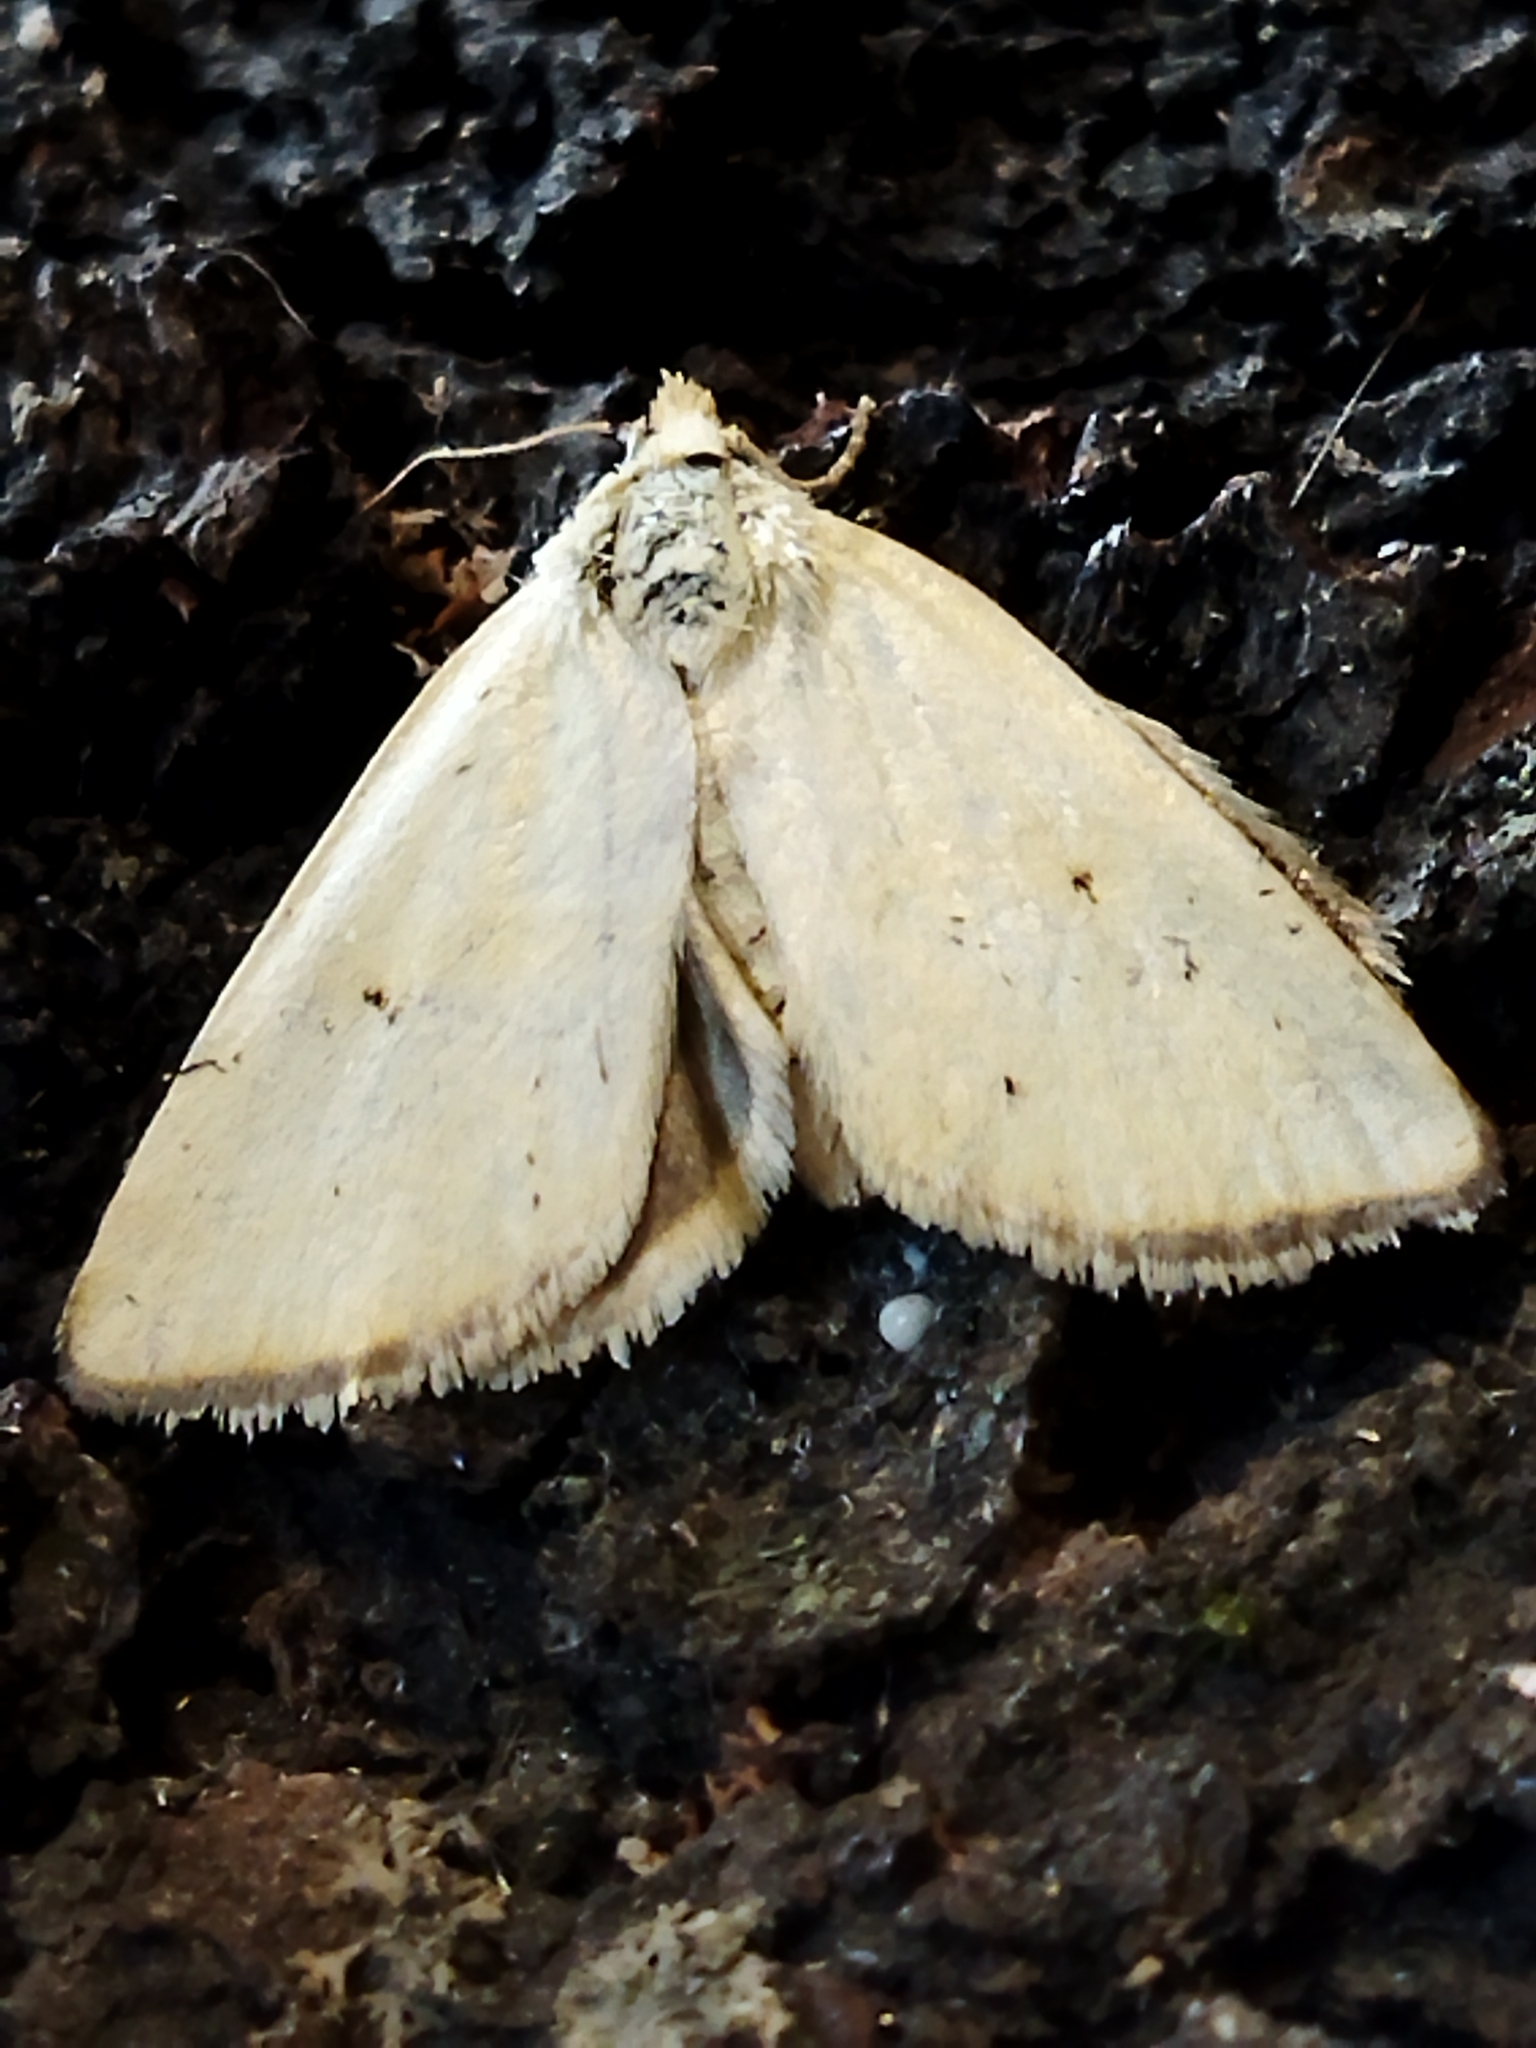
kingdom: Animalia
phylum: Arthropoda
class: Insecta
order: Lepidoptera
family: Noctuidae
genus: Aegle
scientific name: Aegle kaekeritziana
